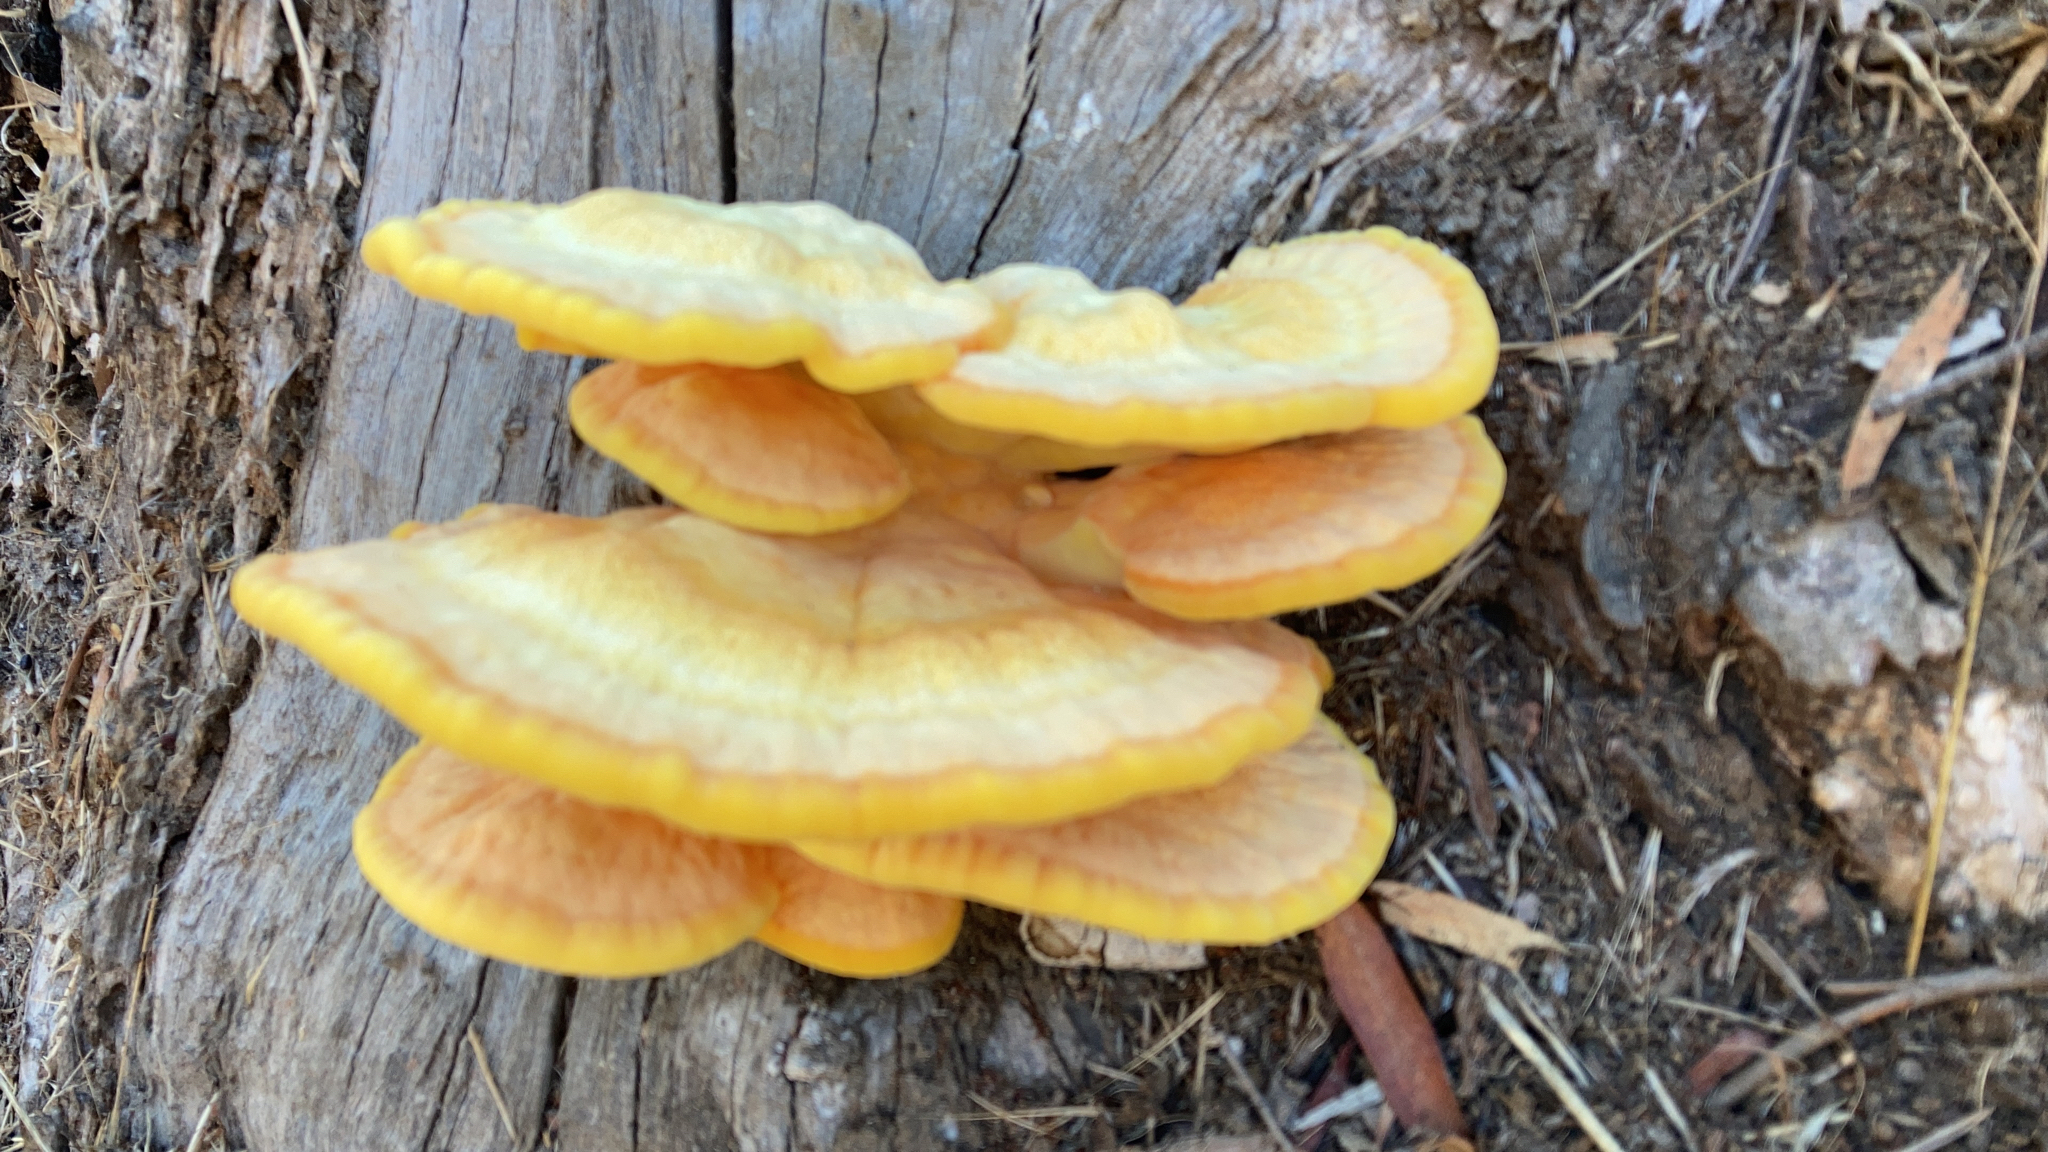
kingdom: Fungi
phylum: Basidiomycota
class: Agaricomycetes
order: Polyporales
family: Laetiporaceae
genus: Laetiporus
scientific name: Laetiporus gilbertsonii
